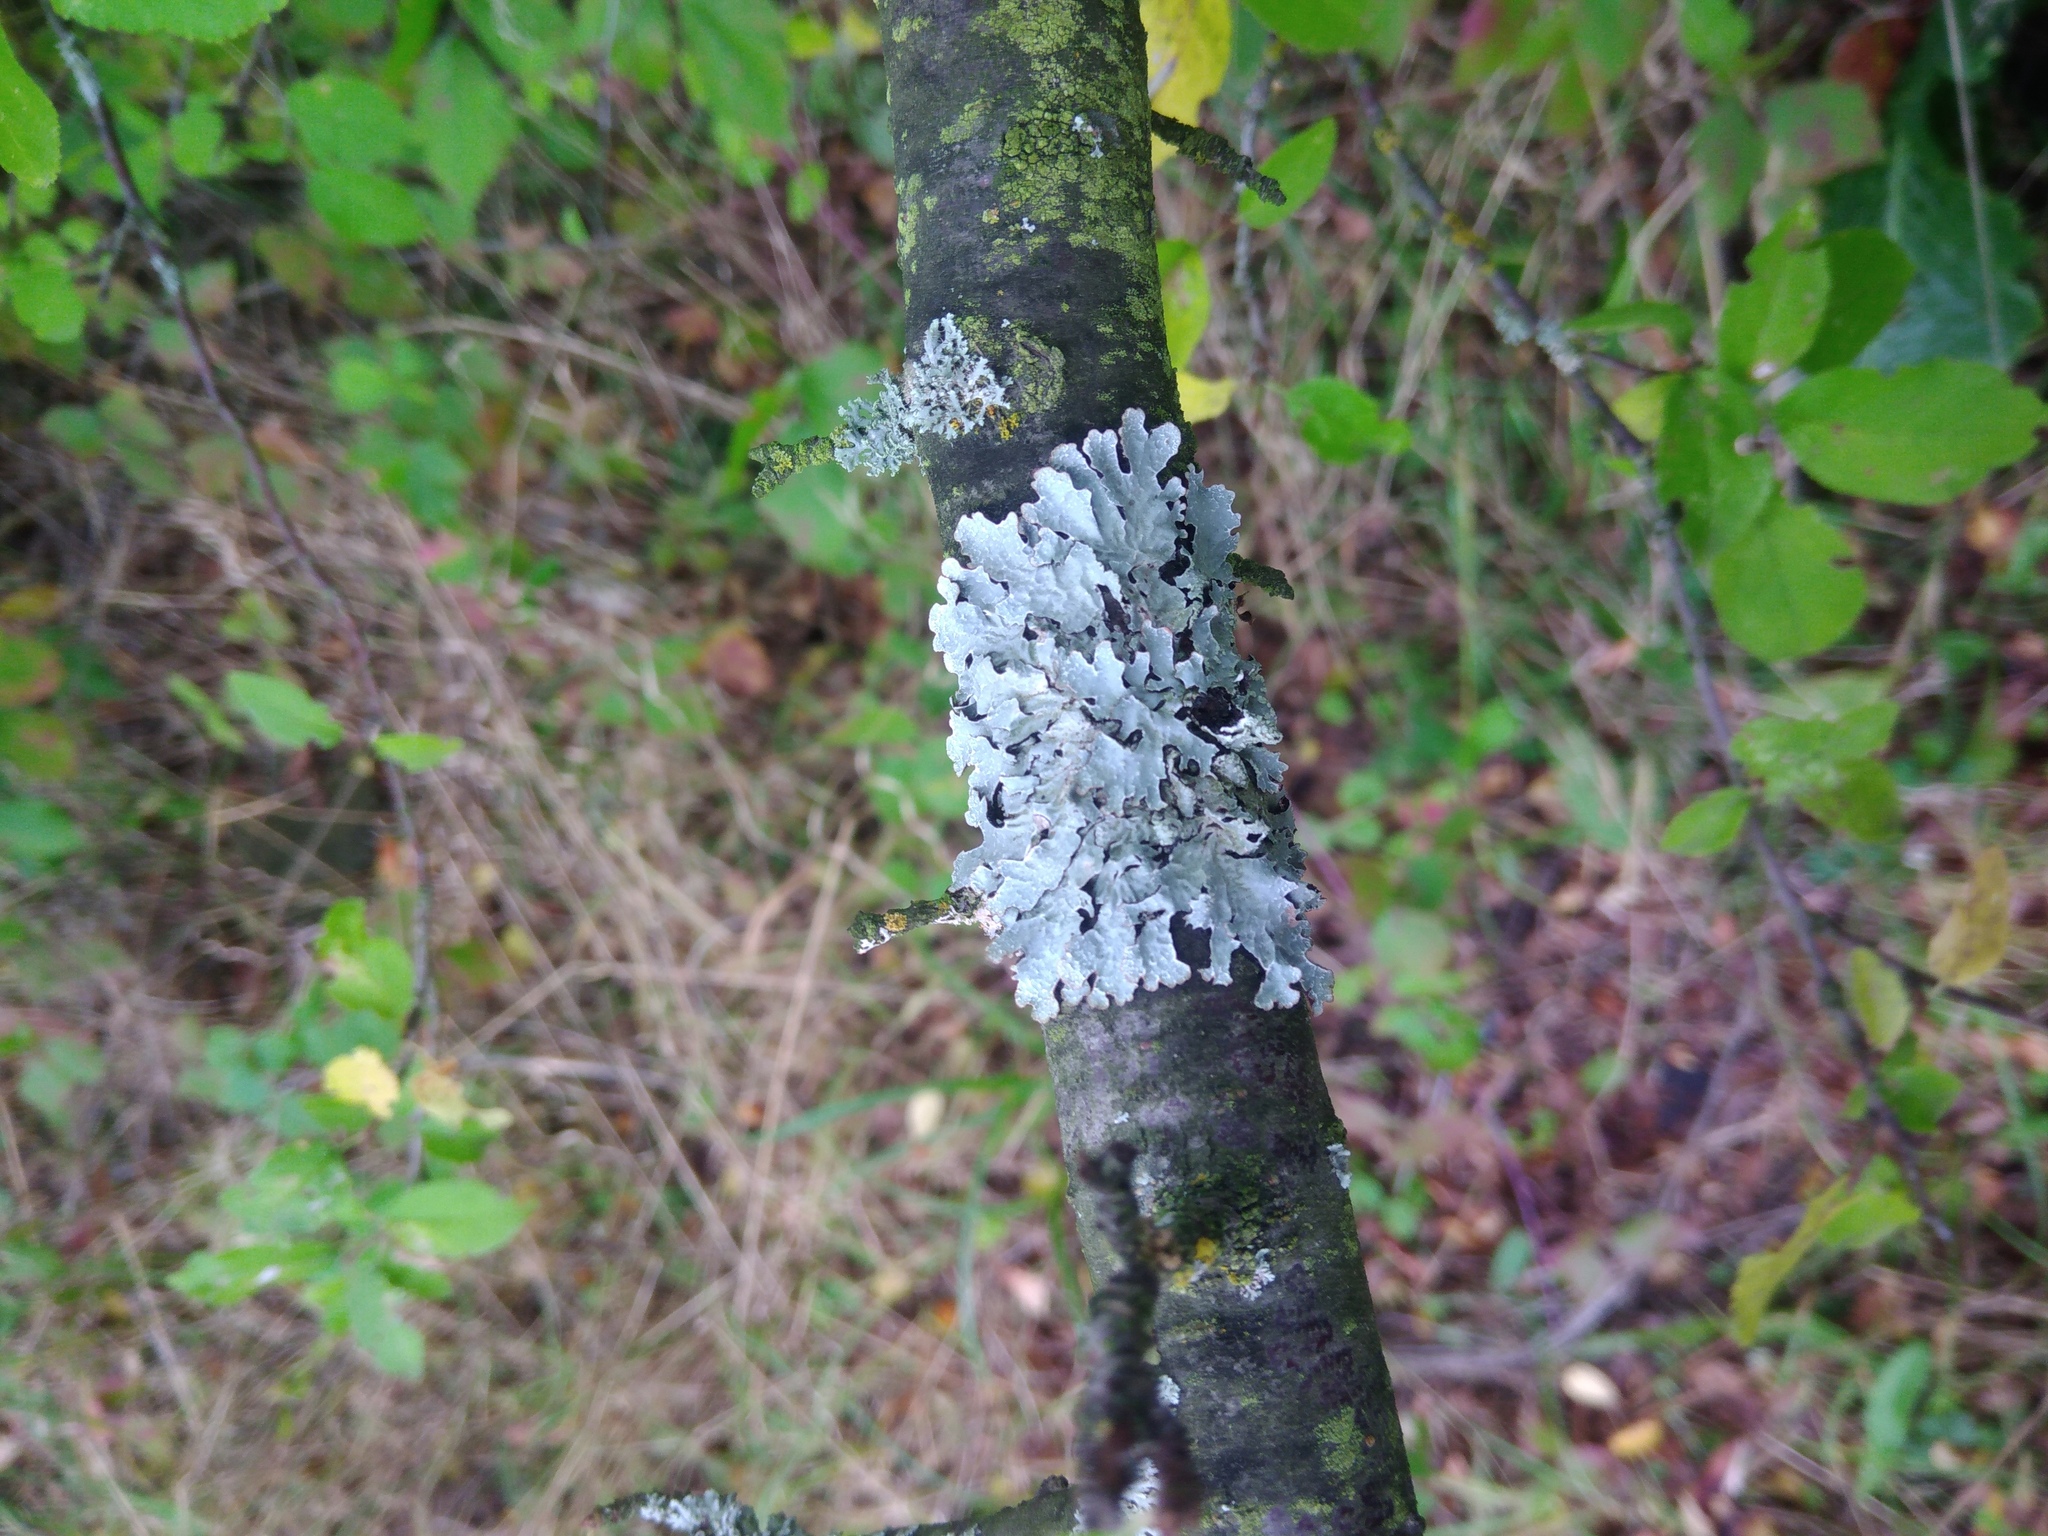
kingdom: Fungi
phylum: Ascomycota
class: Lecanoromycetes
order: Lecanorales
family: Parmeliaceae
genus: Parmelia
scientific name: Parmelia sulcata
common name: Netted shield lichen
